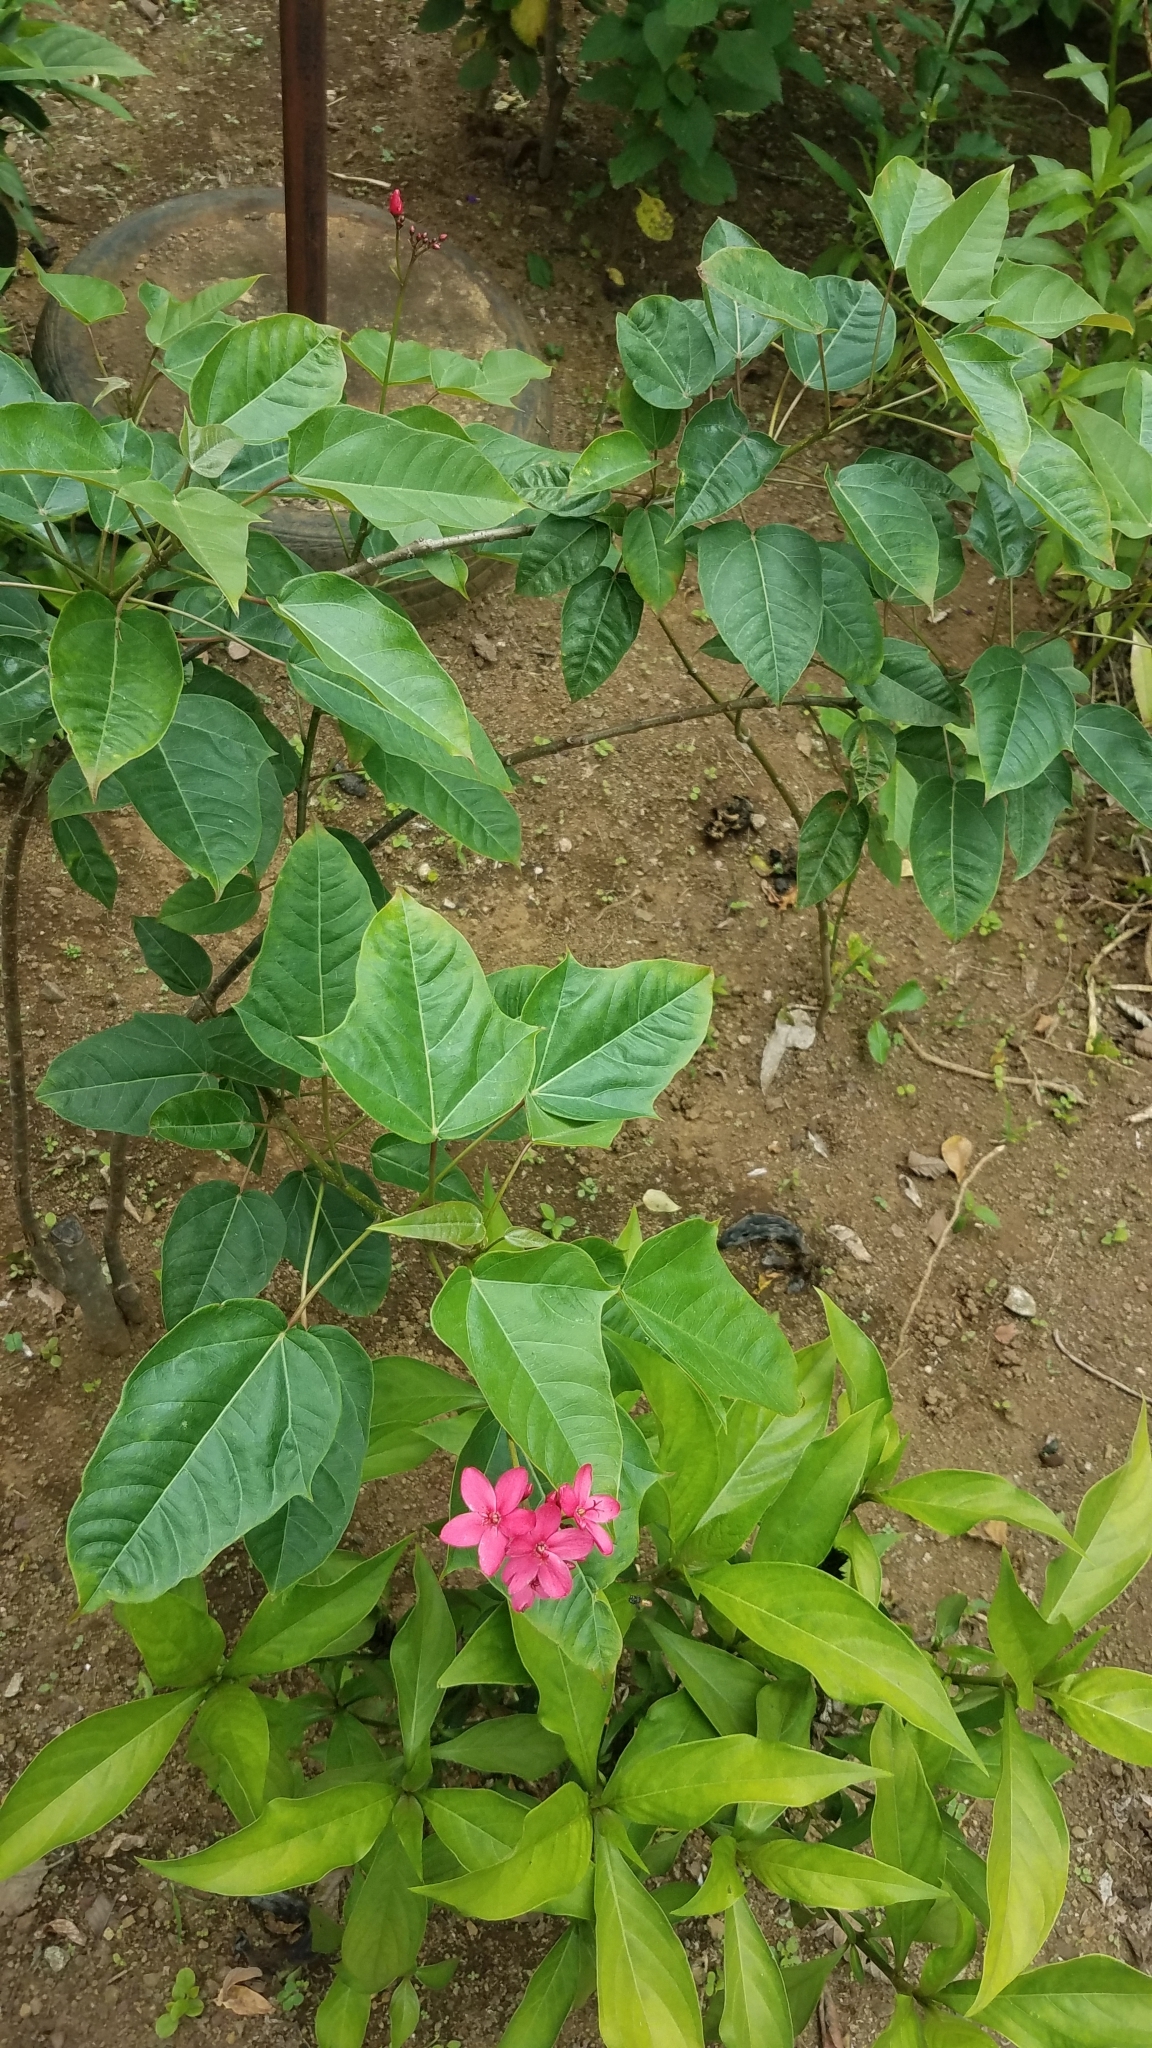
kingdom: Plantae
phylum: Tracheophyta
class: Magnoliopsida
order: Malpighiales
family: Euphorbiaceae
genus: Jatropha
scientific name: Jatropha integerrima
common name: Peregrina
